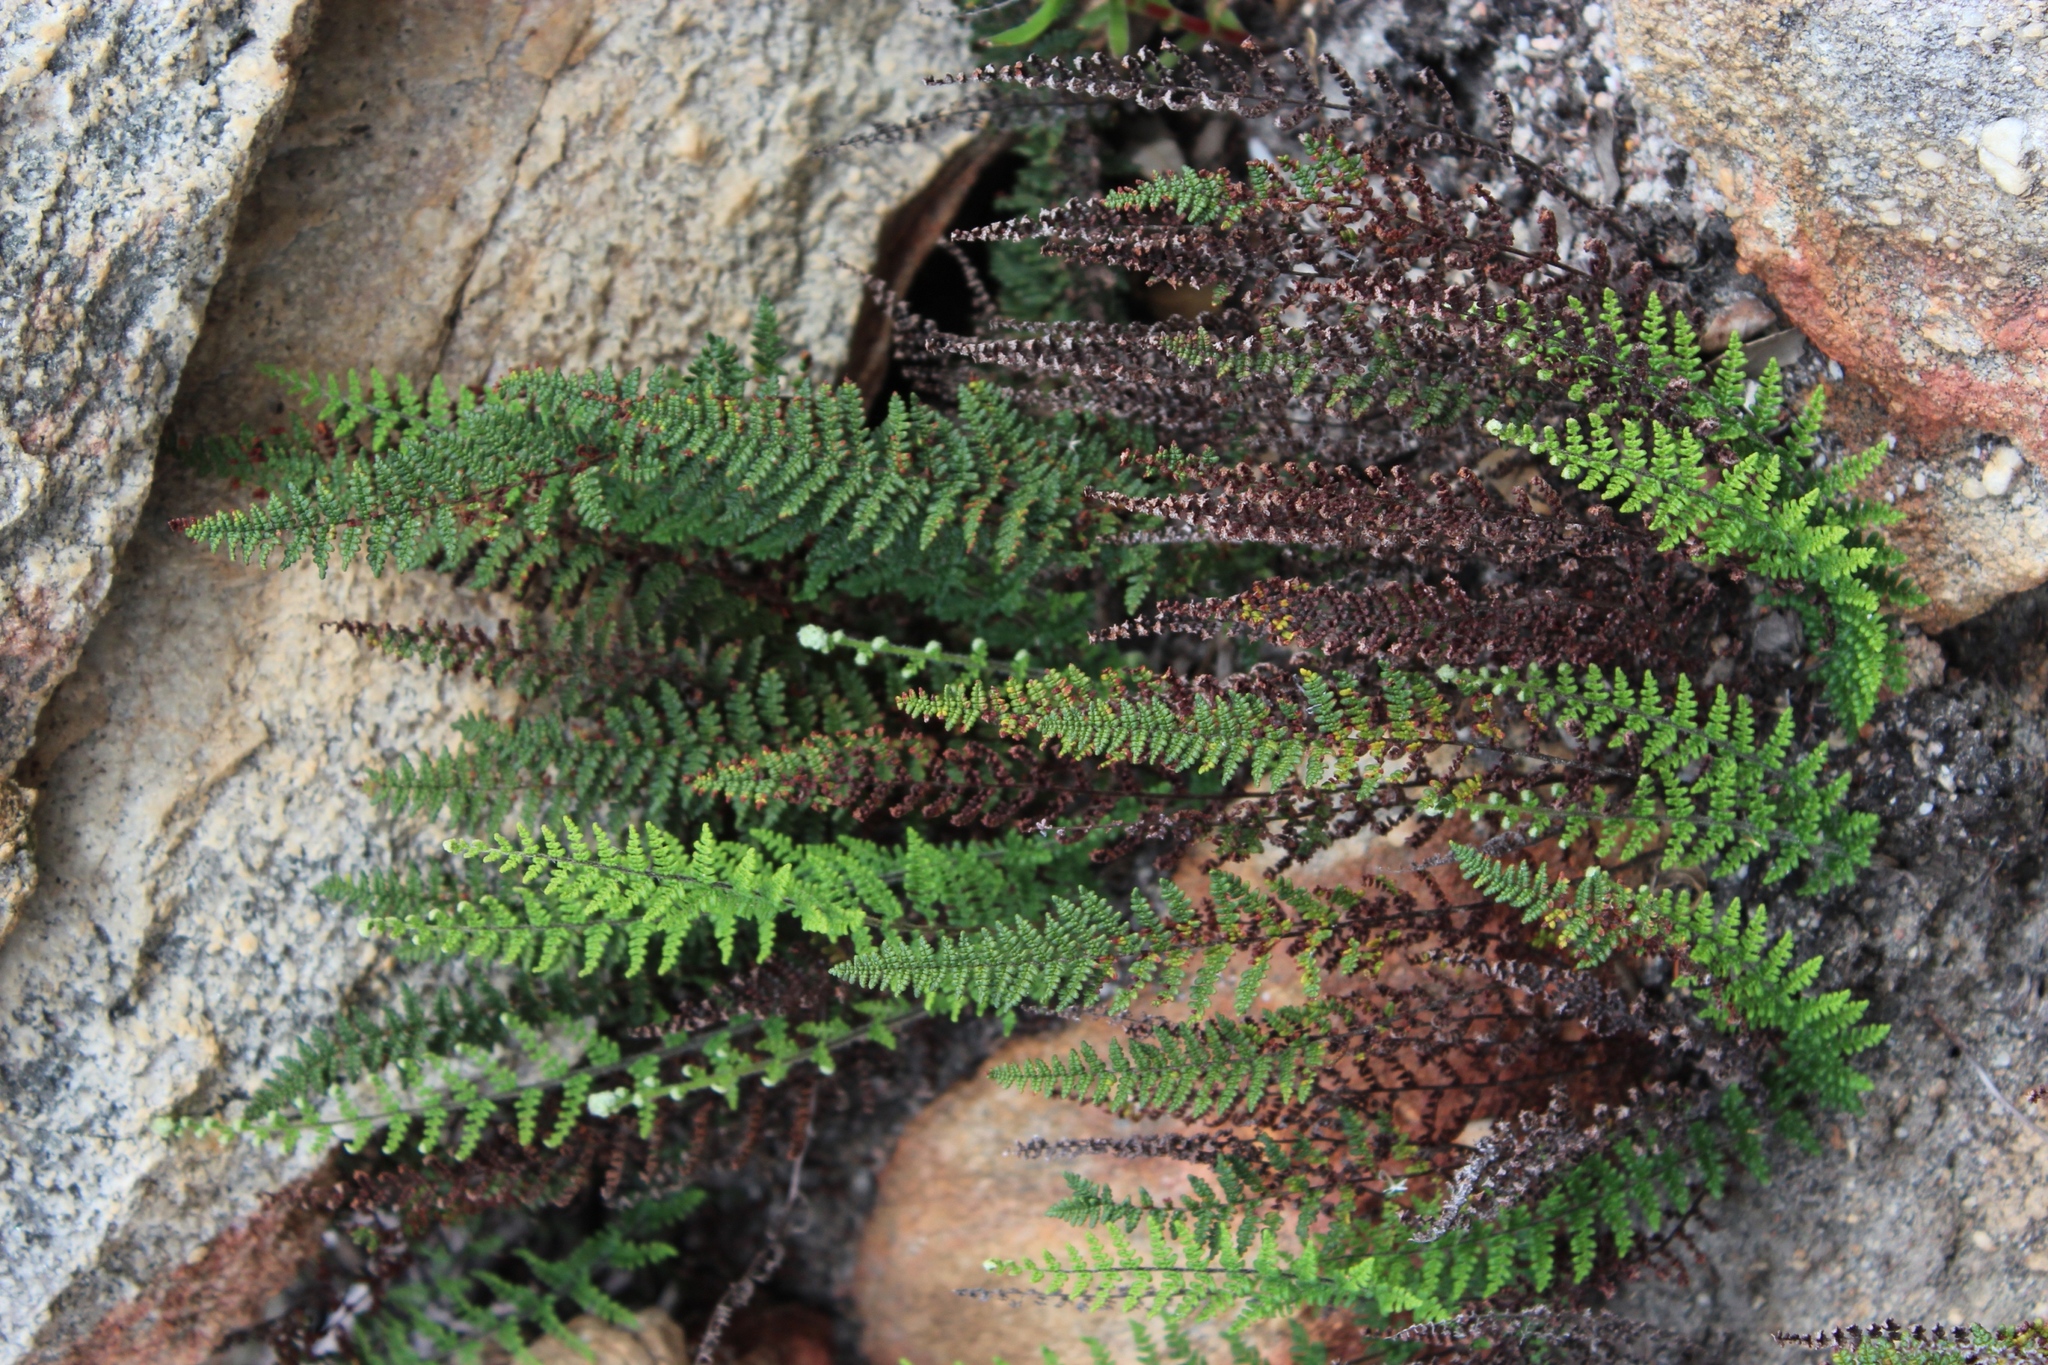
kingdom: Plantae
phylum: Tracheophyta
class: Polypodiopsida
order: Polypodiales
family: Pteridaceae
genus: Cheilanthes
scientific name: Cheilanthes contracta
